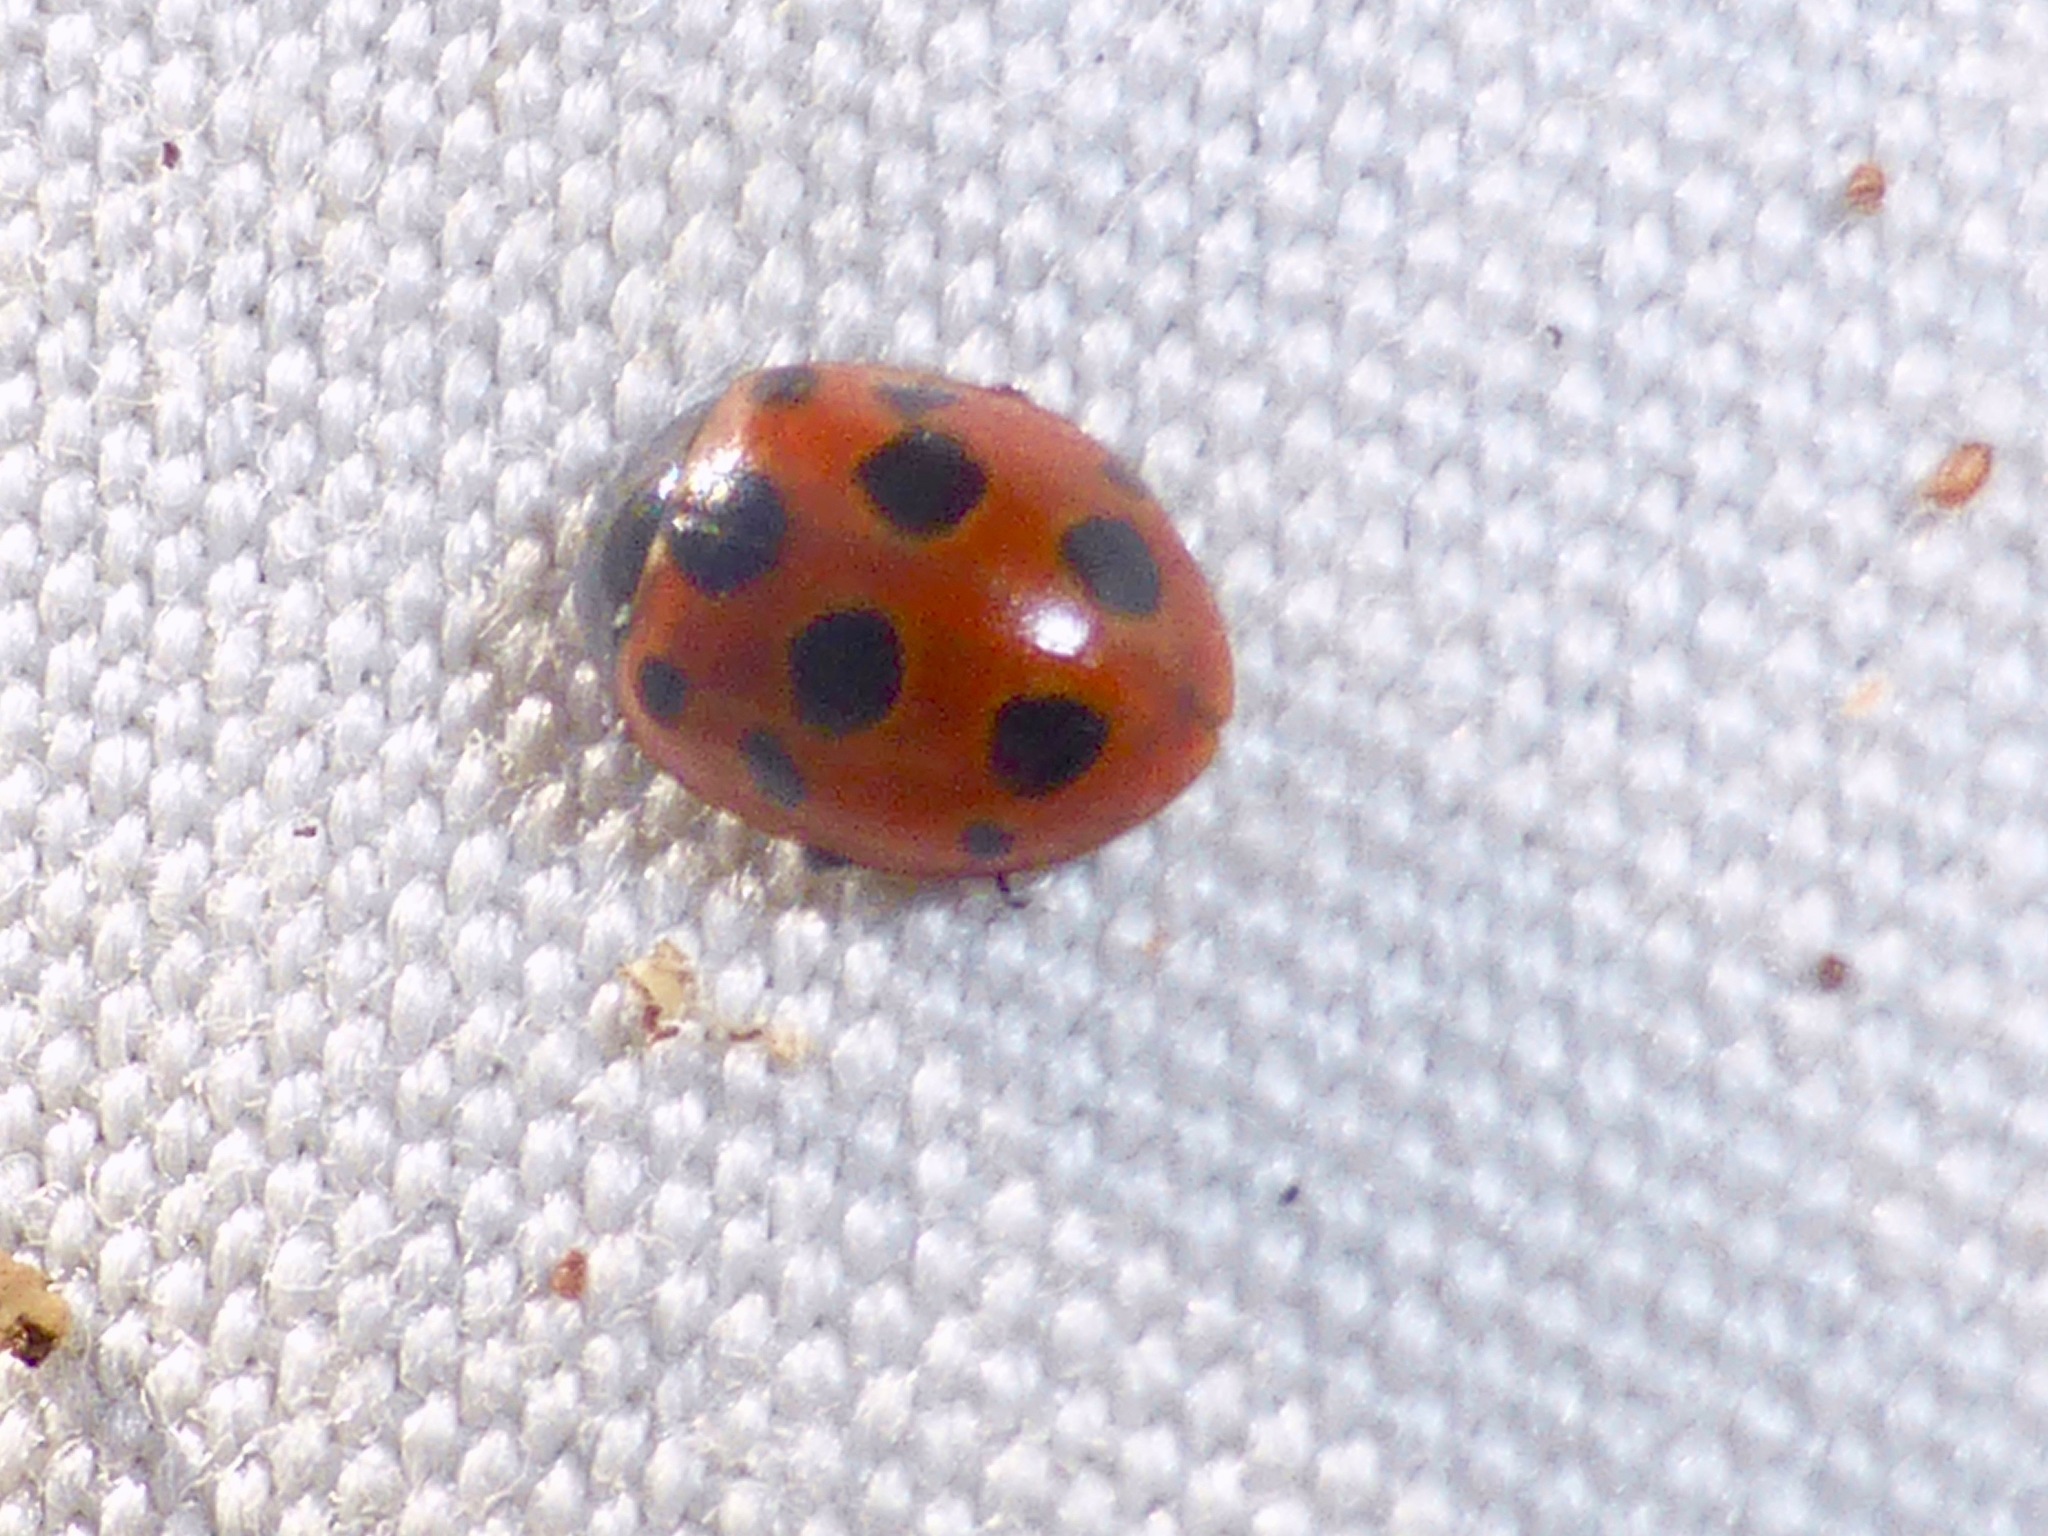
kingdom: Animalia
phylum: Arthropoda
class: Insecta
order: Coleoptera
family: Coccinellidae
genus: Coccinella
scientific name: Coccinella undecimpunctata
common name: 11-spot ladybird
